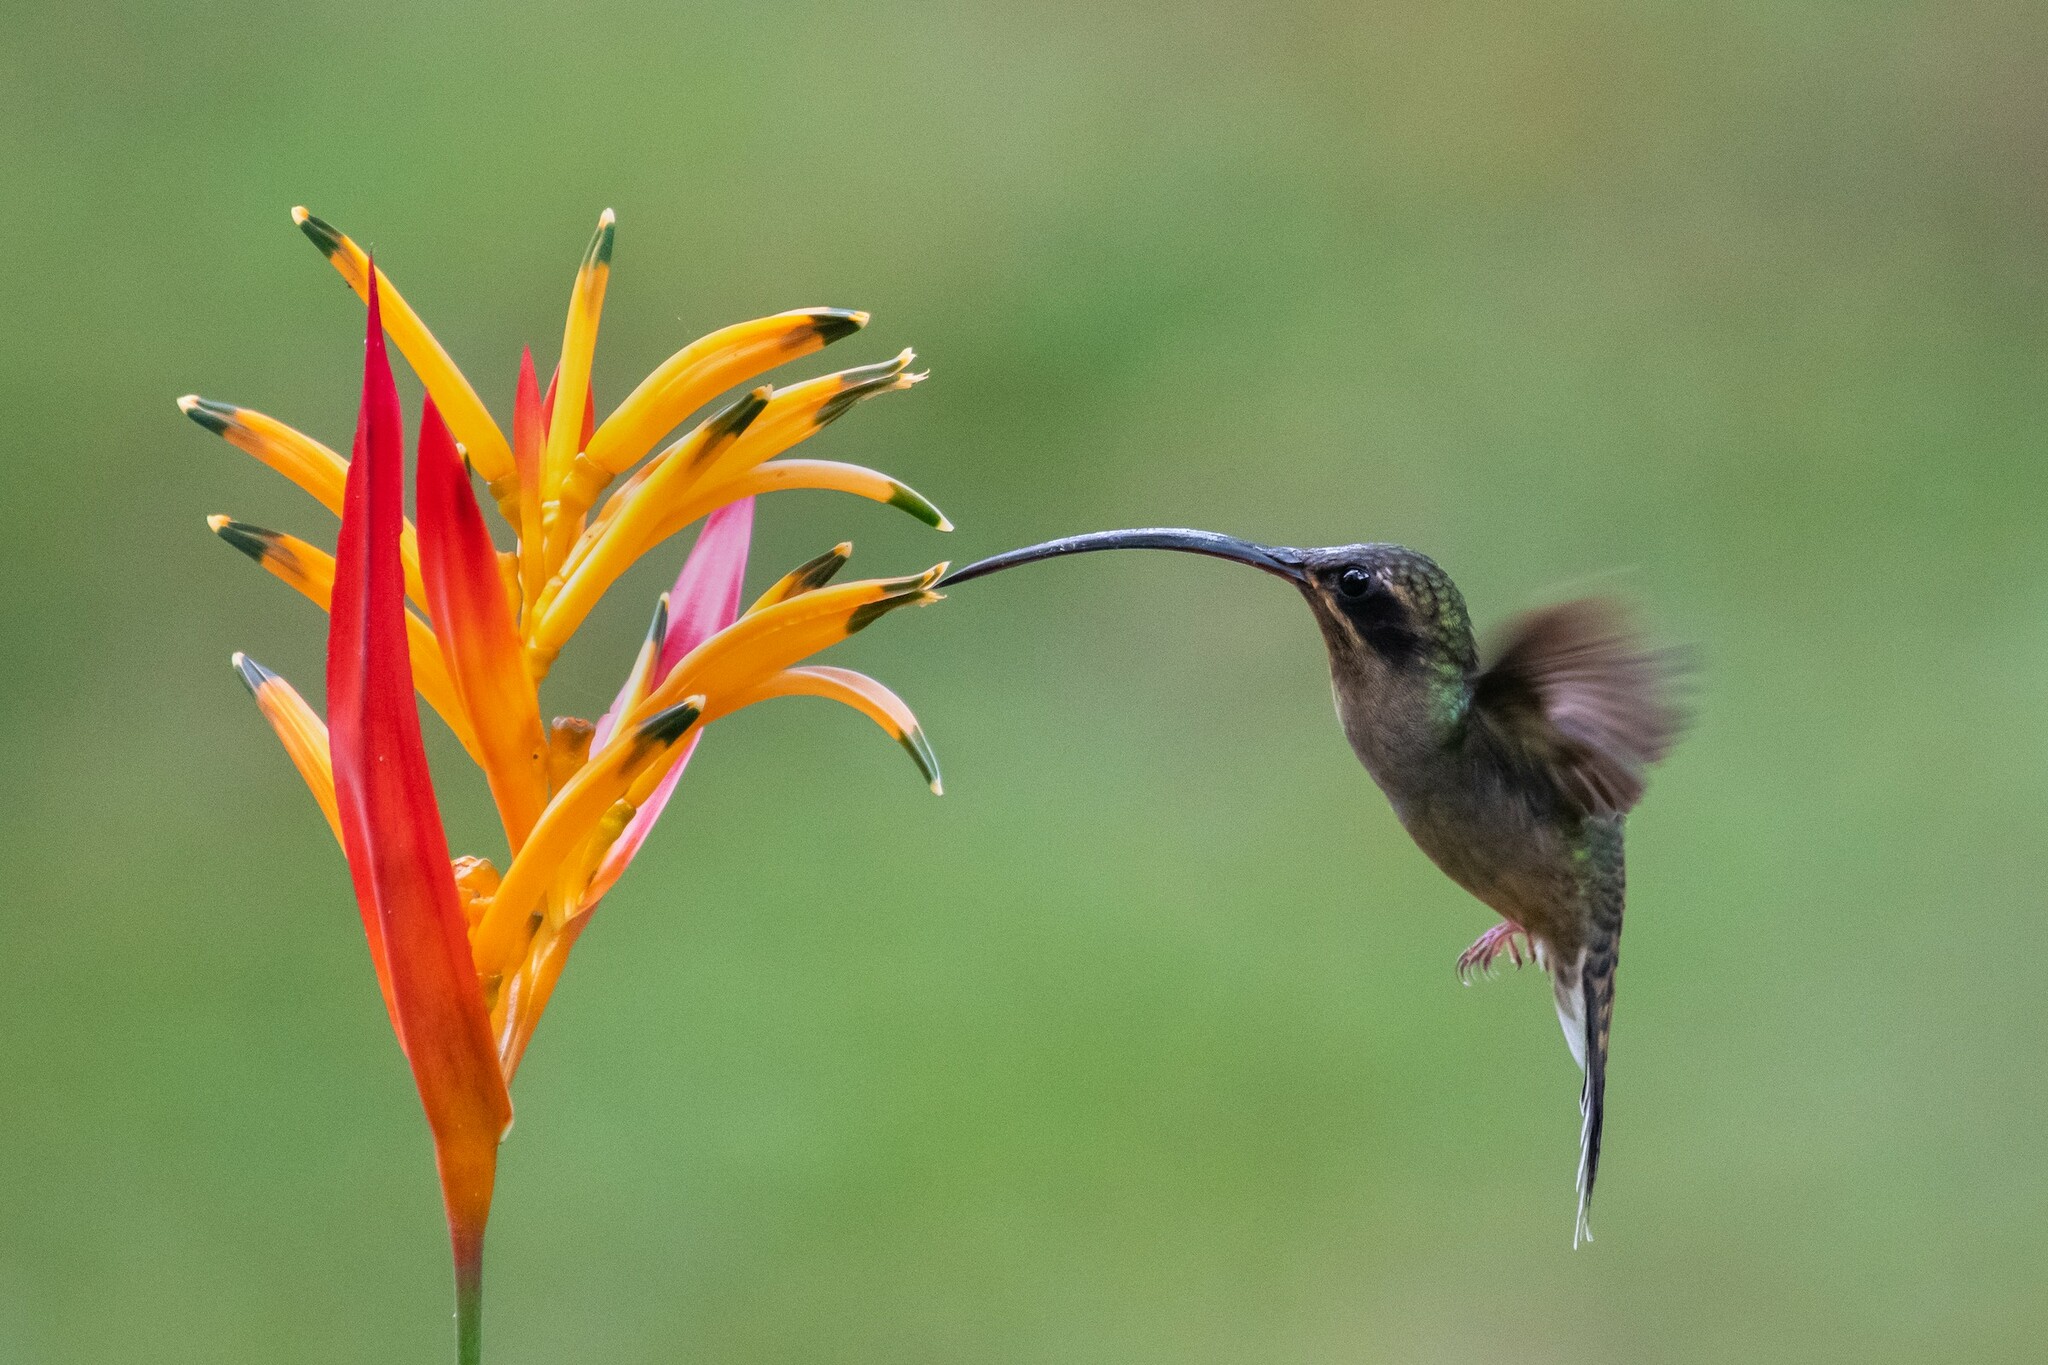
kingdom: Animalia
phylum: Chordata
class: Aves
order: Apodiformes
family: Trochilidae
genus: Phaethornis
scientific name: Phaethornis guy
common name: Green hermit
